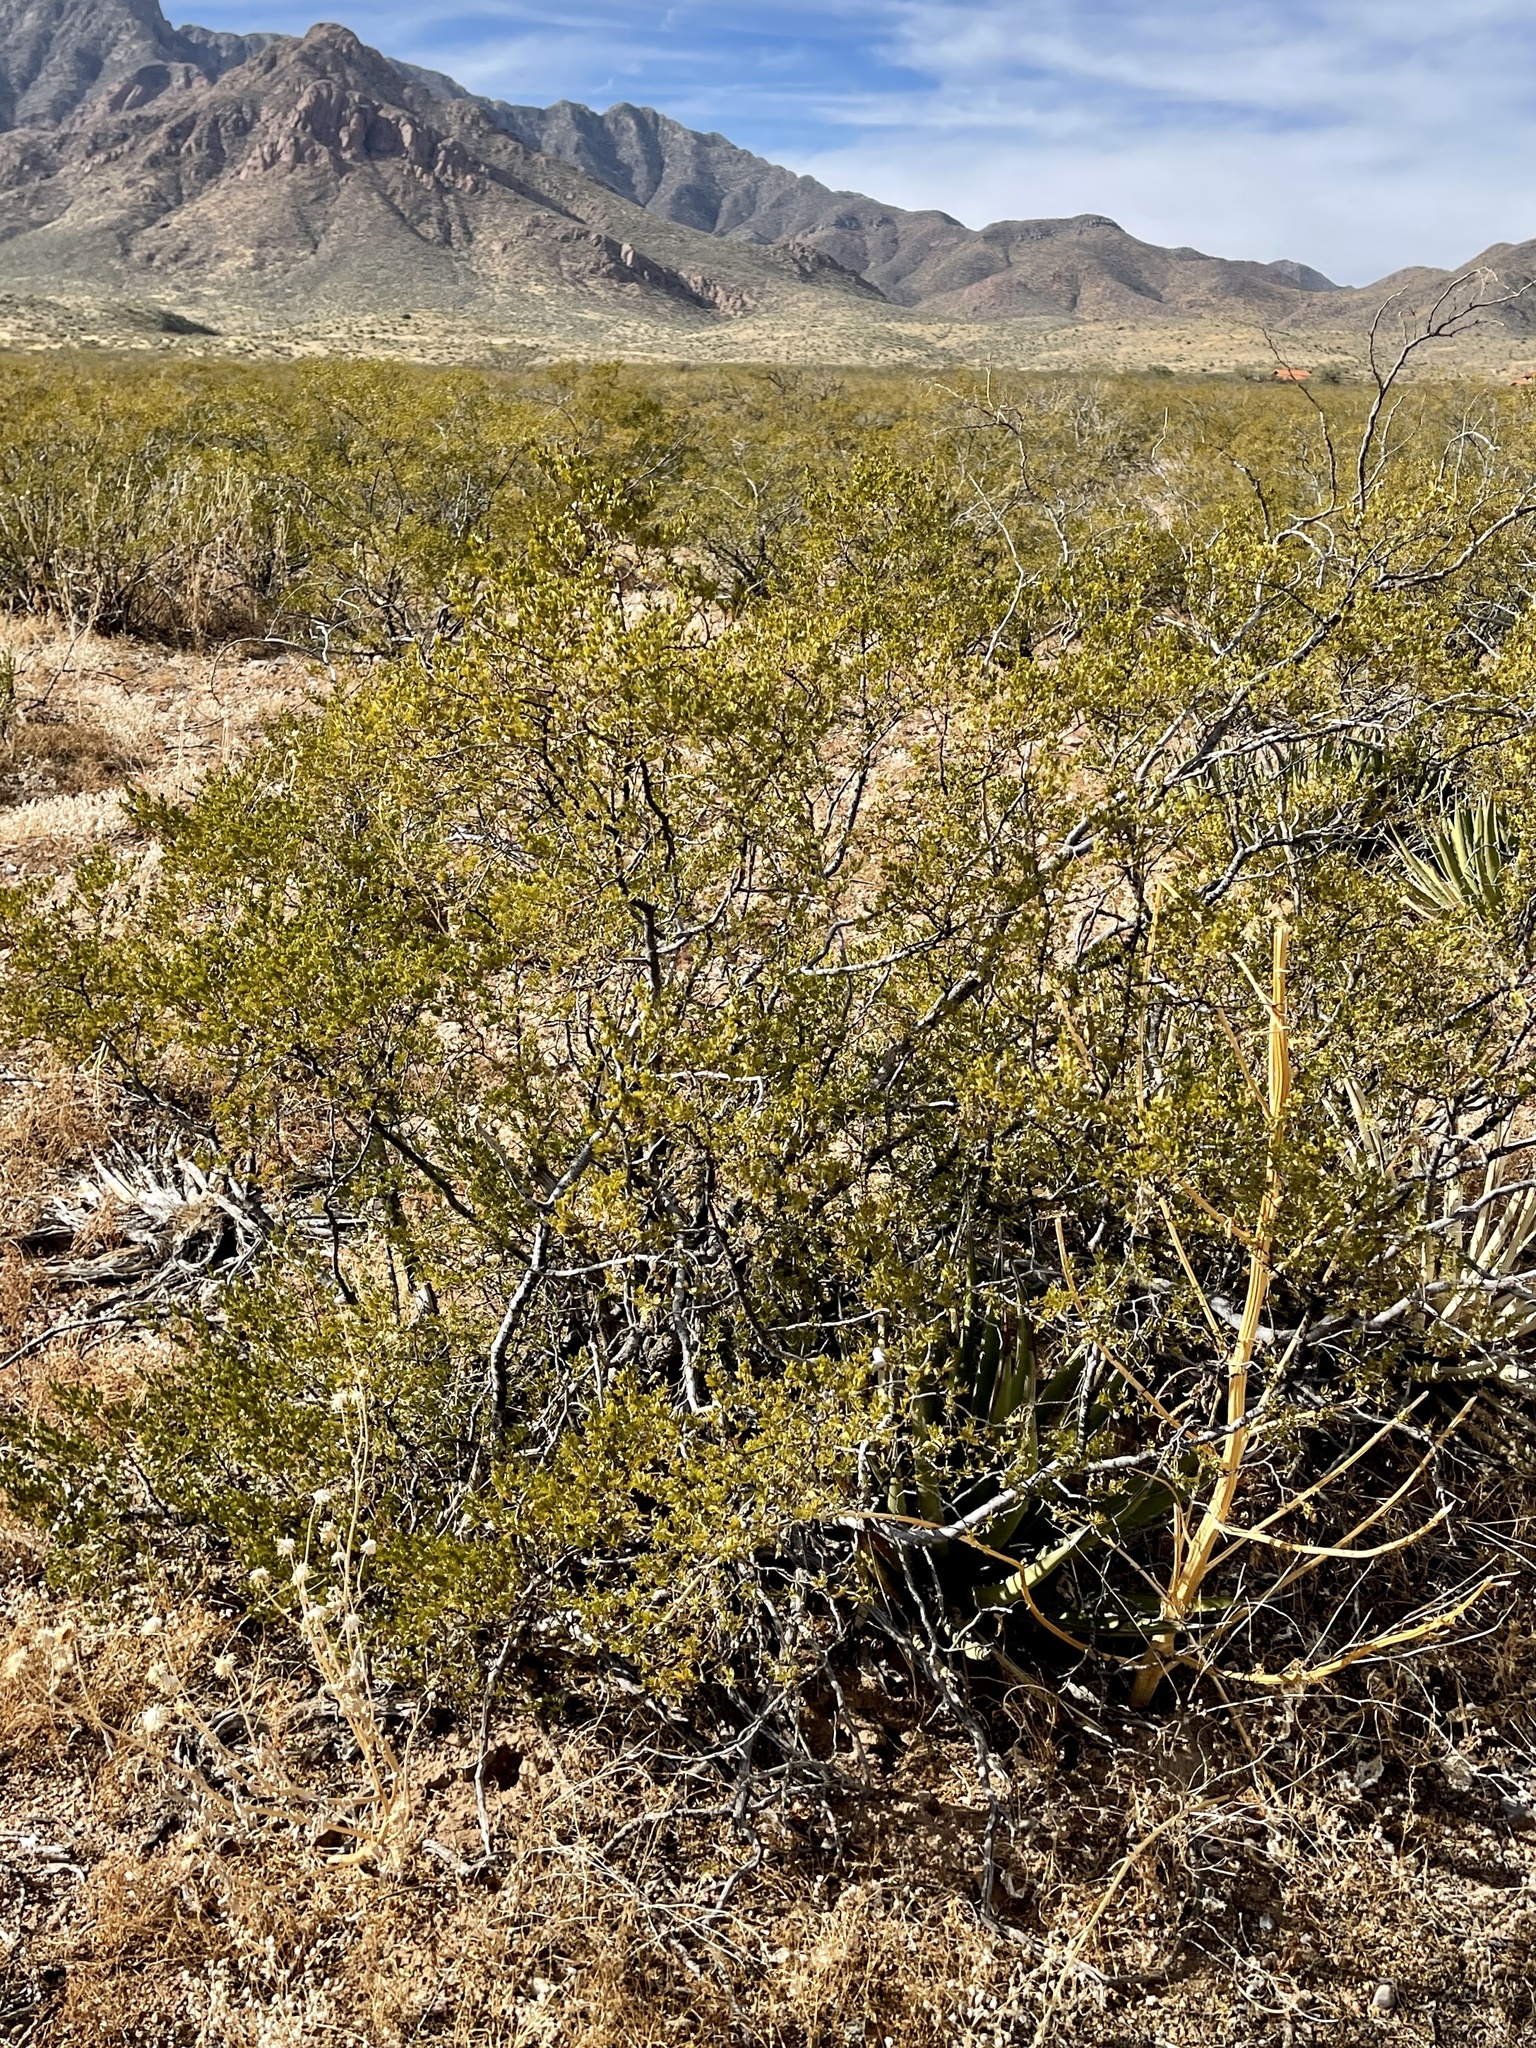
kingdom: Plantae
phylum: Tracheophyta
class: Magnoliopsida
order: Zygophyllales
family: Zygophyllaceae
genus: Larrea
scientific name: Larrea tridentata
